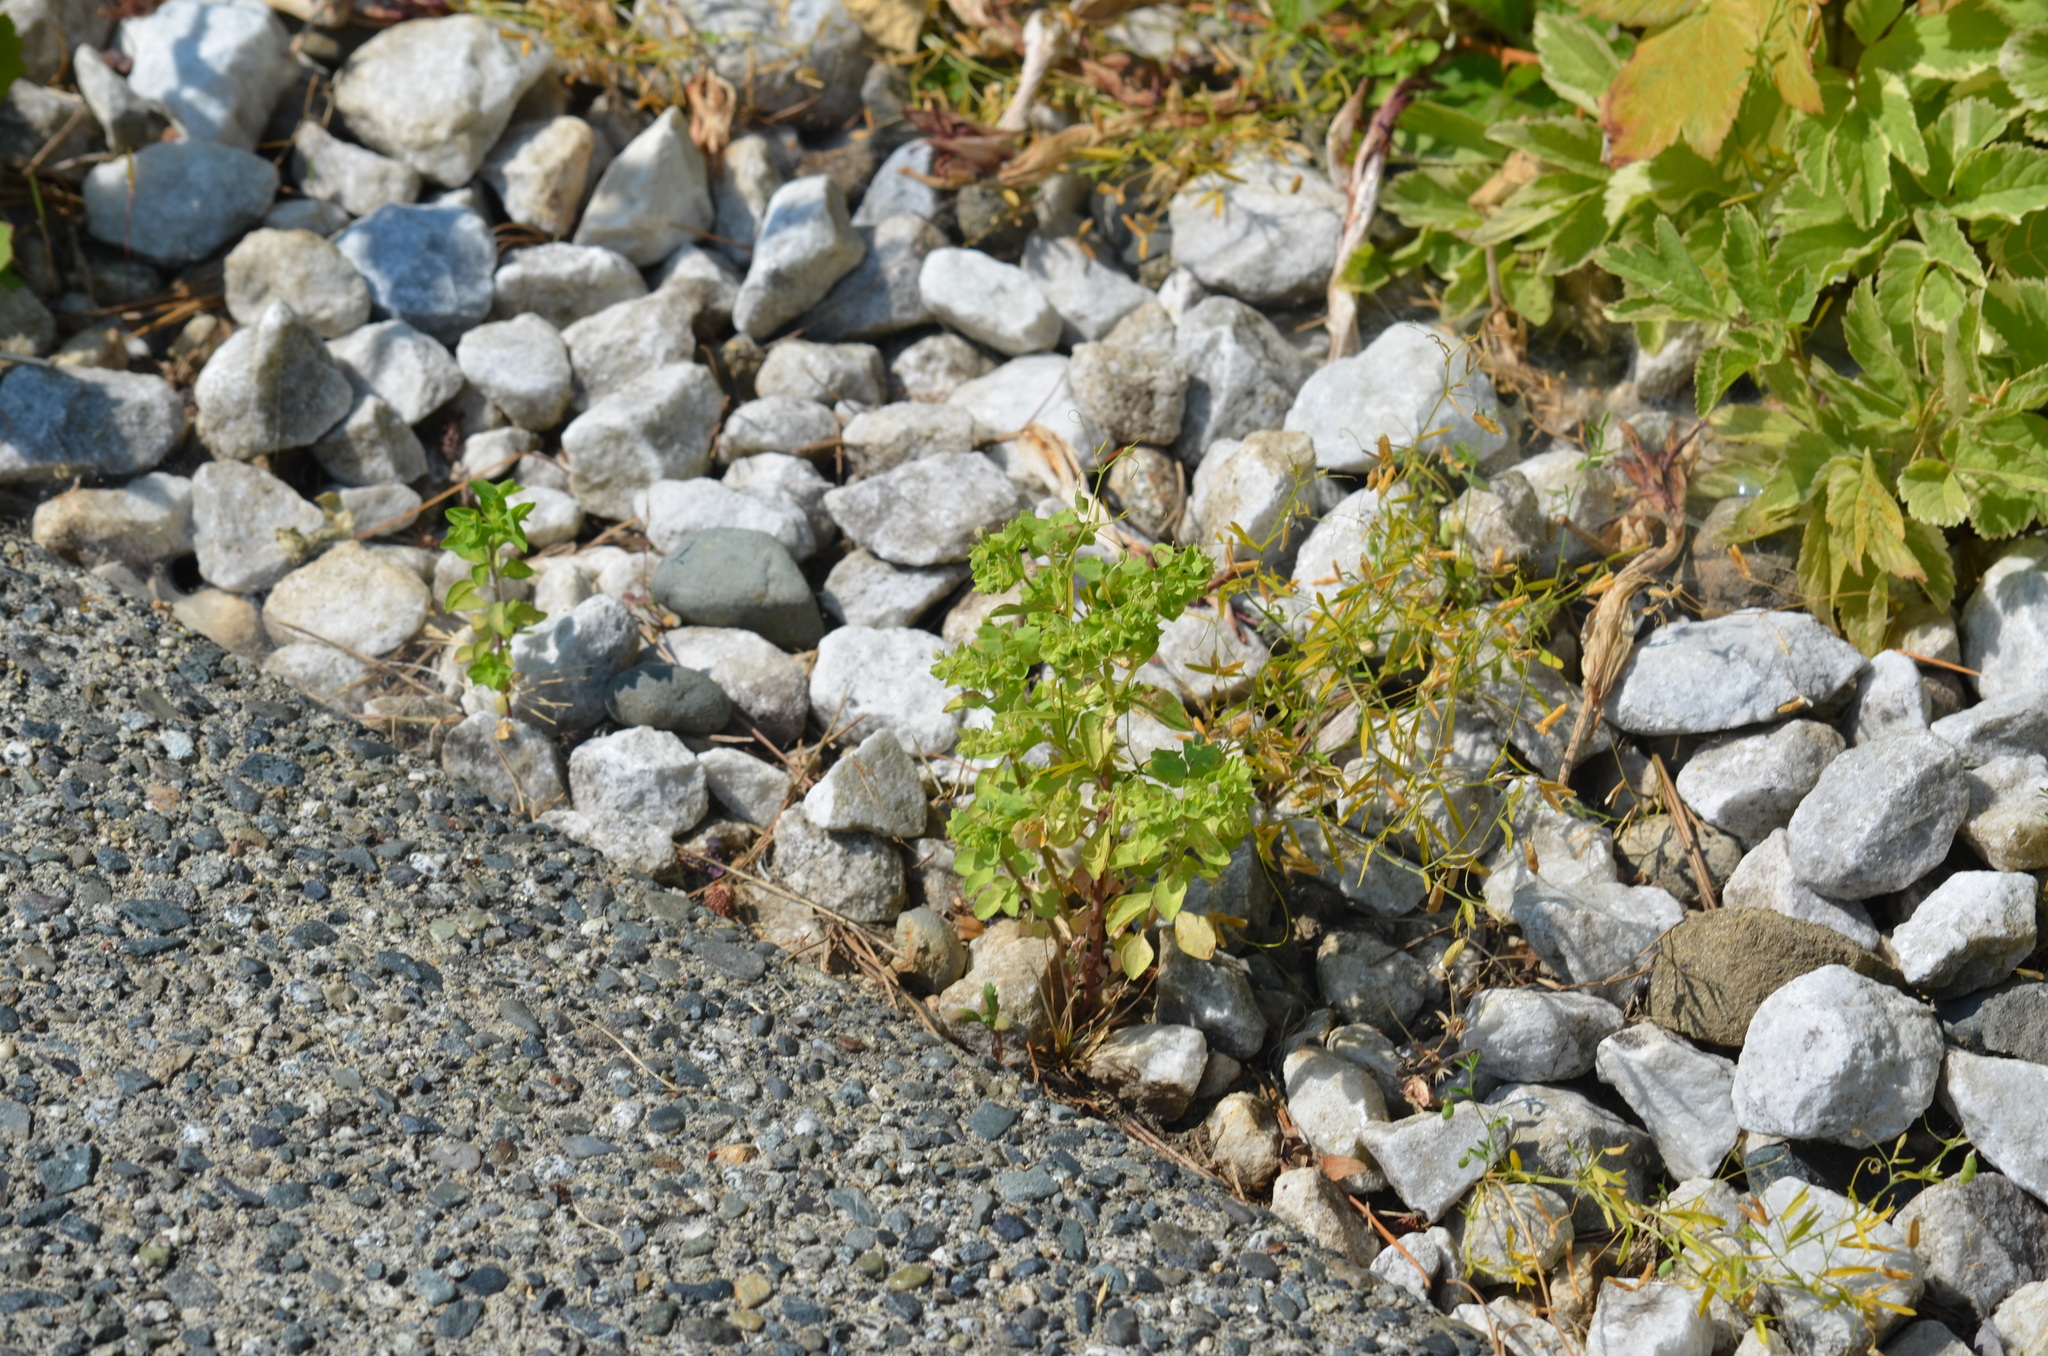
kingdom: Plantae
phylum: Tracheophyta
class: Magnoliopsida
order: Malpighiales
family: Euphorbiaceae
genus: Euphorbia
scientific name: Euphorbia peplus
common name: Petty spurge
